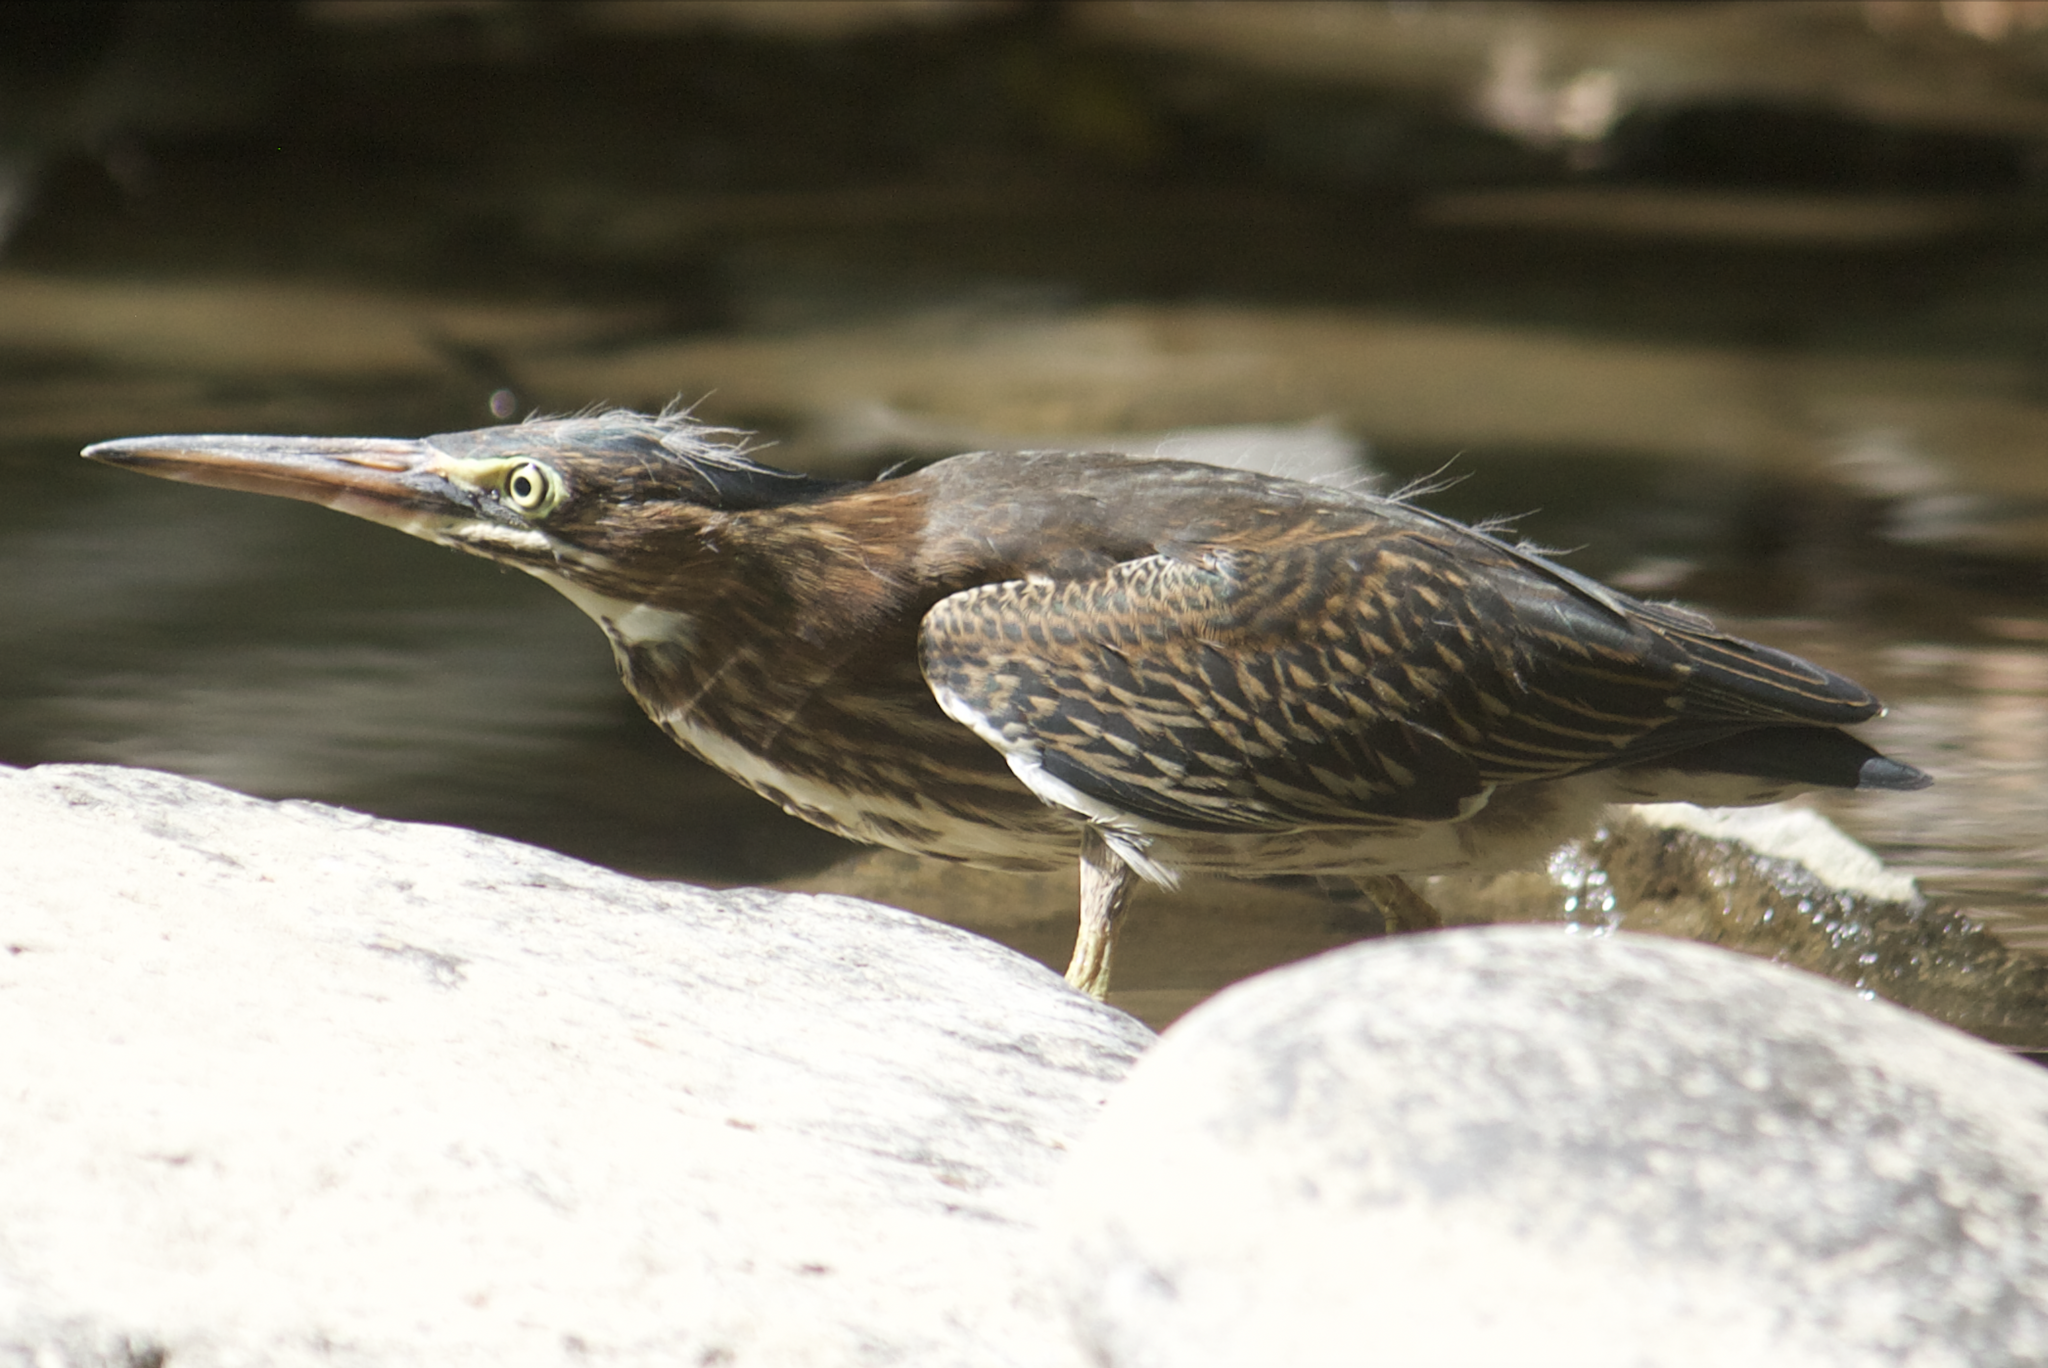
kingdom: Animalia
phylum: Chordata
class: Aves
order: Pelecaniformes
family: Ardeidae
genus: Butorides
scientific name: Butorides virescens
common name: Green heron
